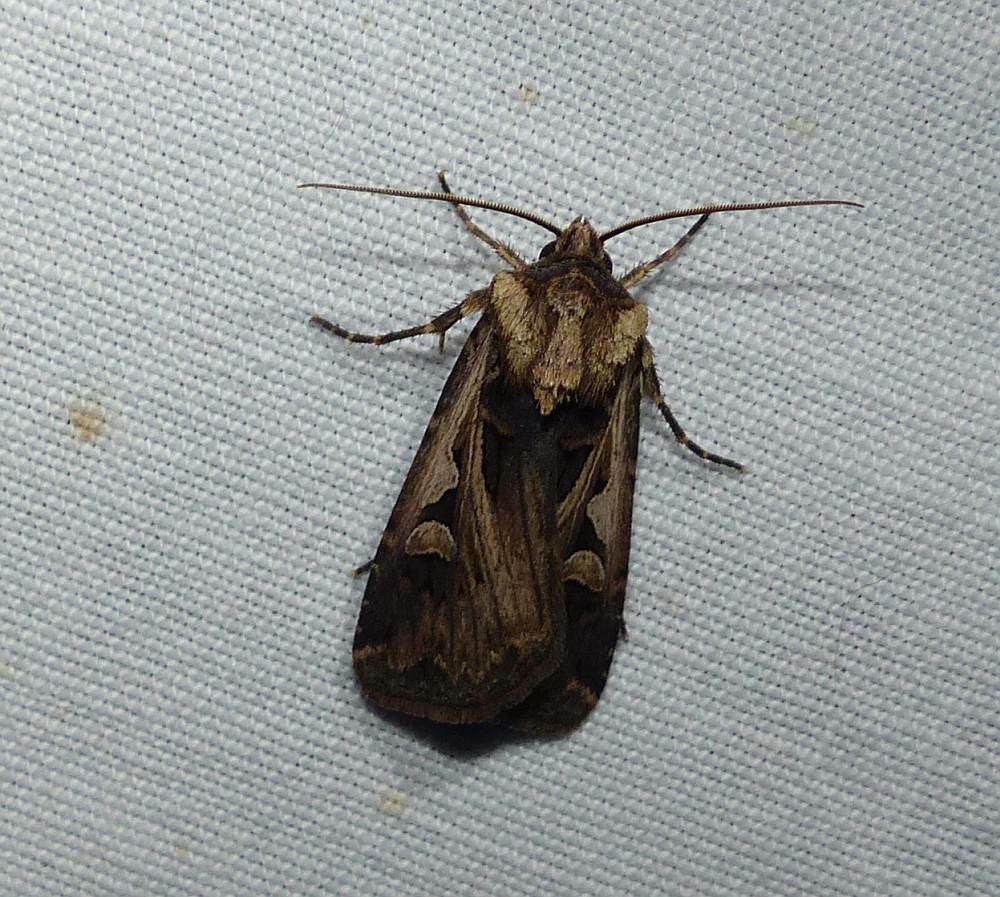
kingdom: Animalia
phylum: Arthropoda
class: Insecta
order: Lepidoptera
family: Noctuidae
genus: Feltia
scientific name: Feltia
